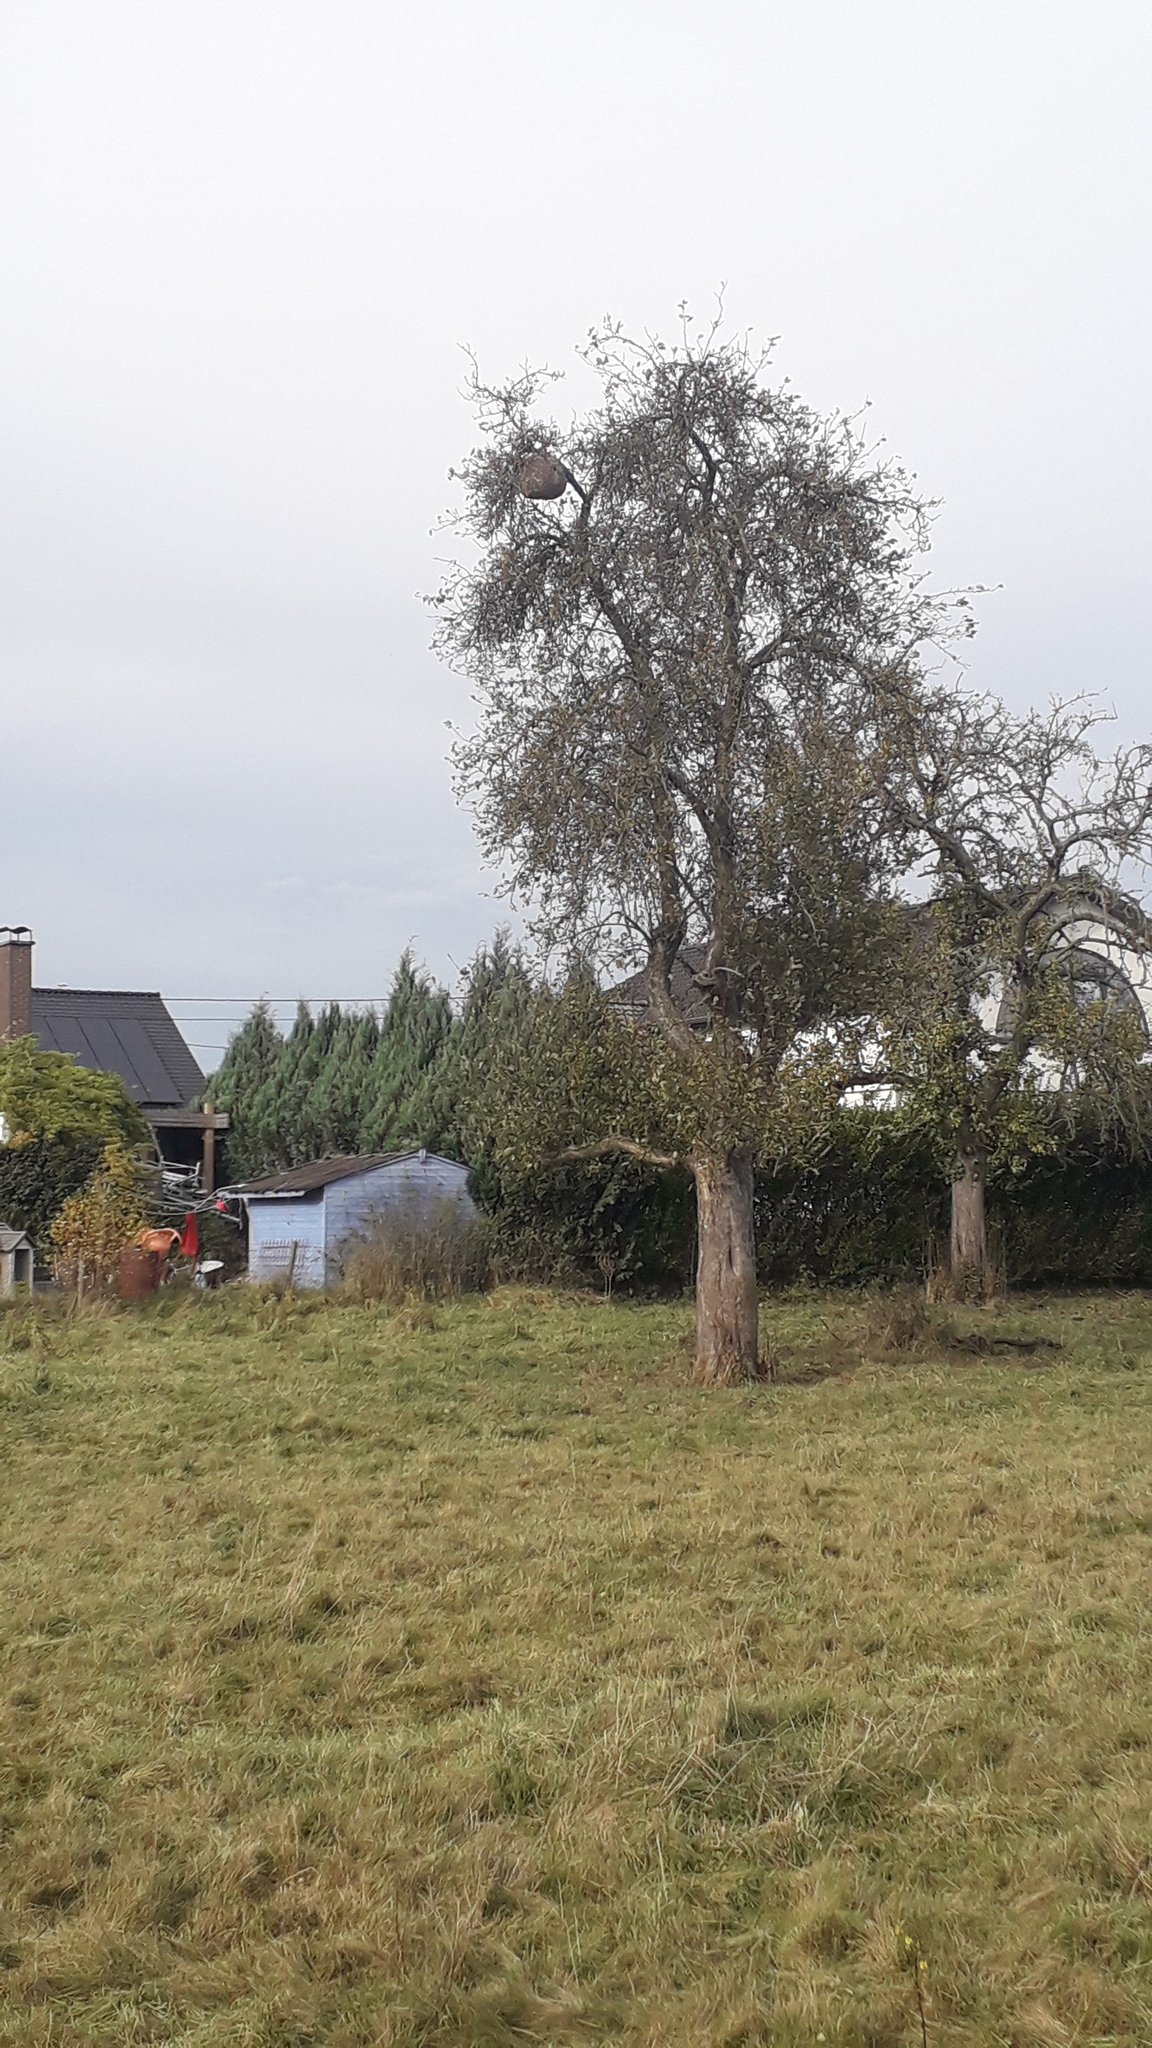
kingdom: Animalia
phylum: Arthropoda
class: Insecta
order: Hymenoptera
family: Vespidae
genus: Vespa
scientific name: Vespa velutina
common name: Asian hornet
